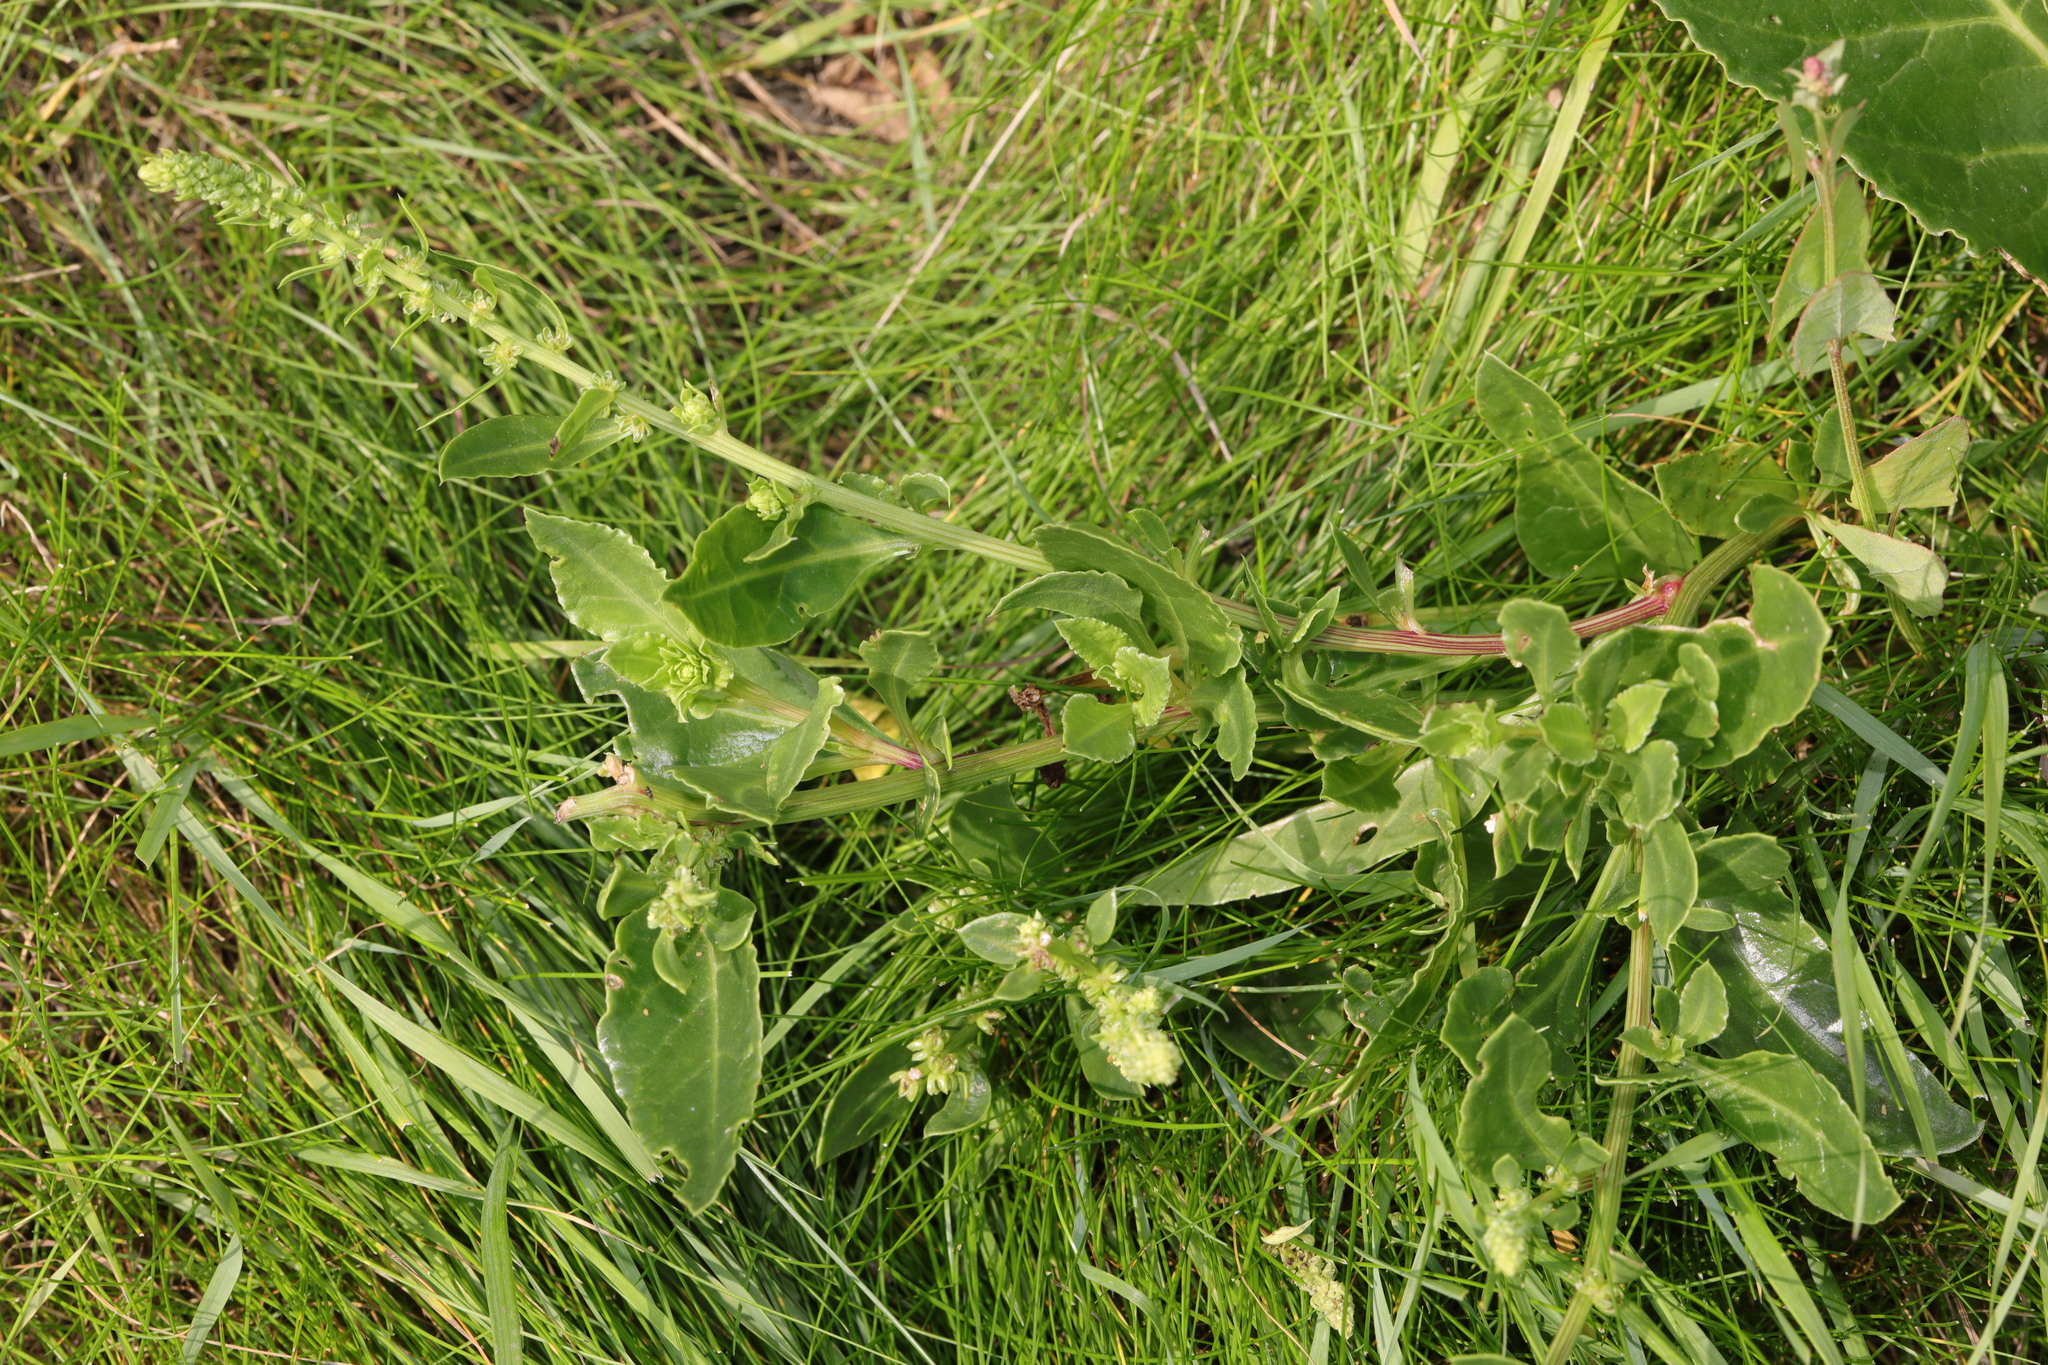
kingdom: Plantae
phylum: Tracheophyta
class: Magnoliopsida
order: Caryophyllales
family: Amaranthaceae
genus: Beta
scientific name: Beta vulgaris
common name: Beet
